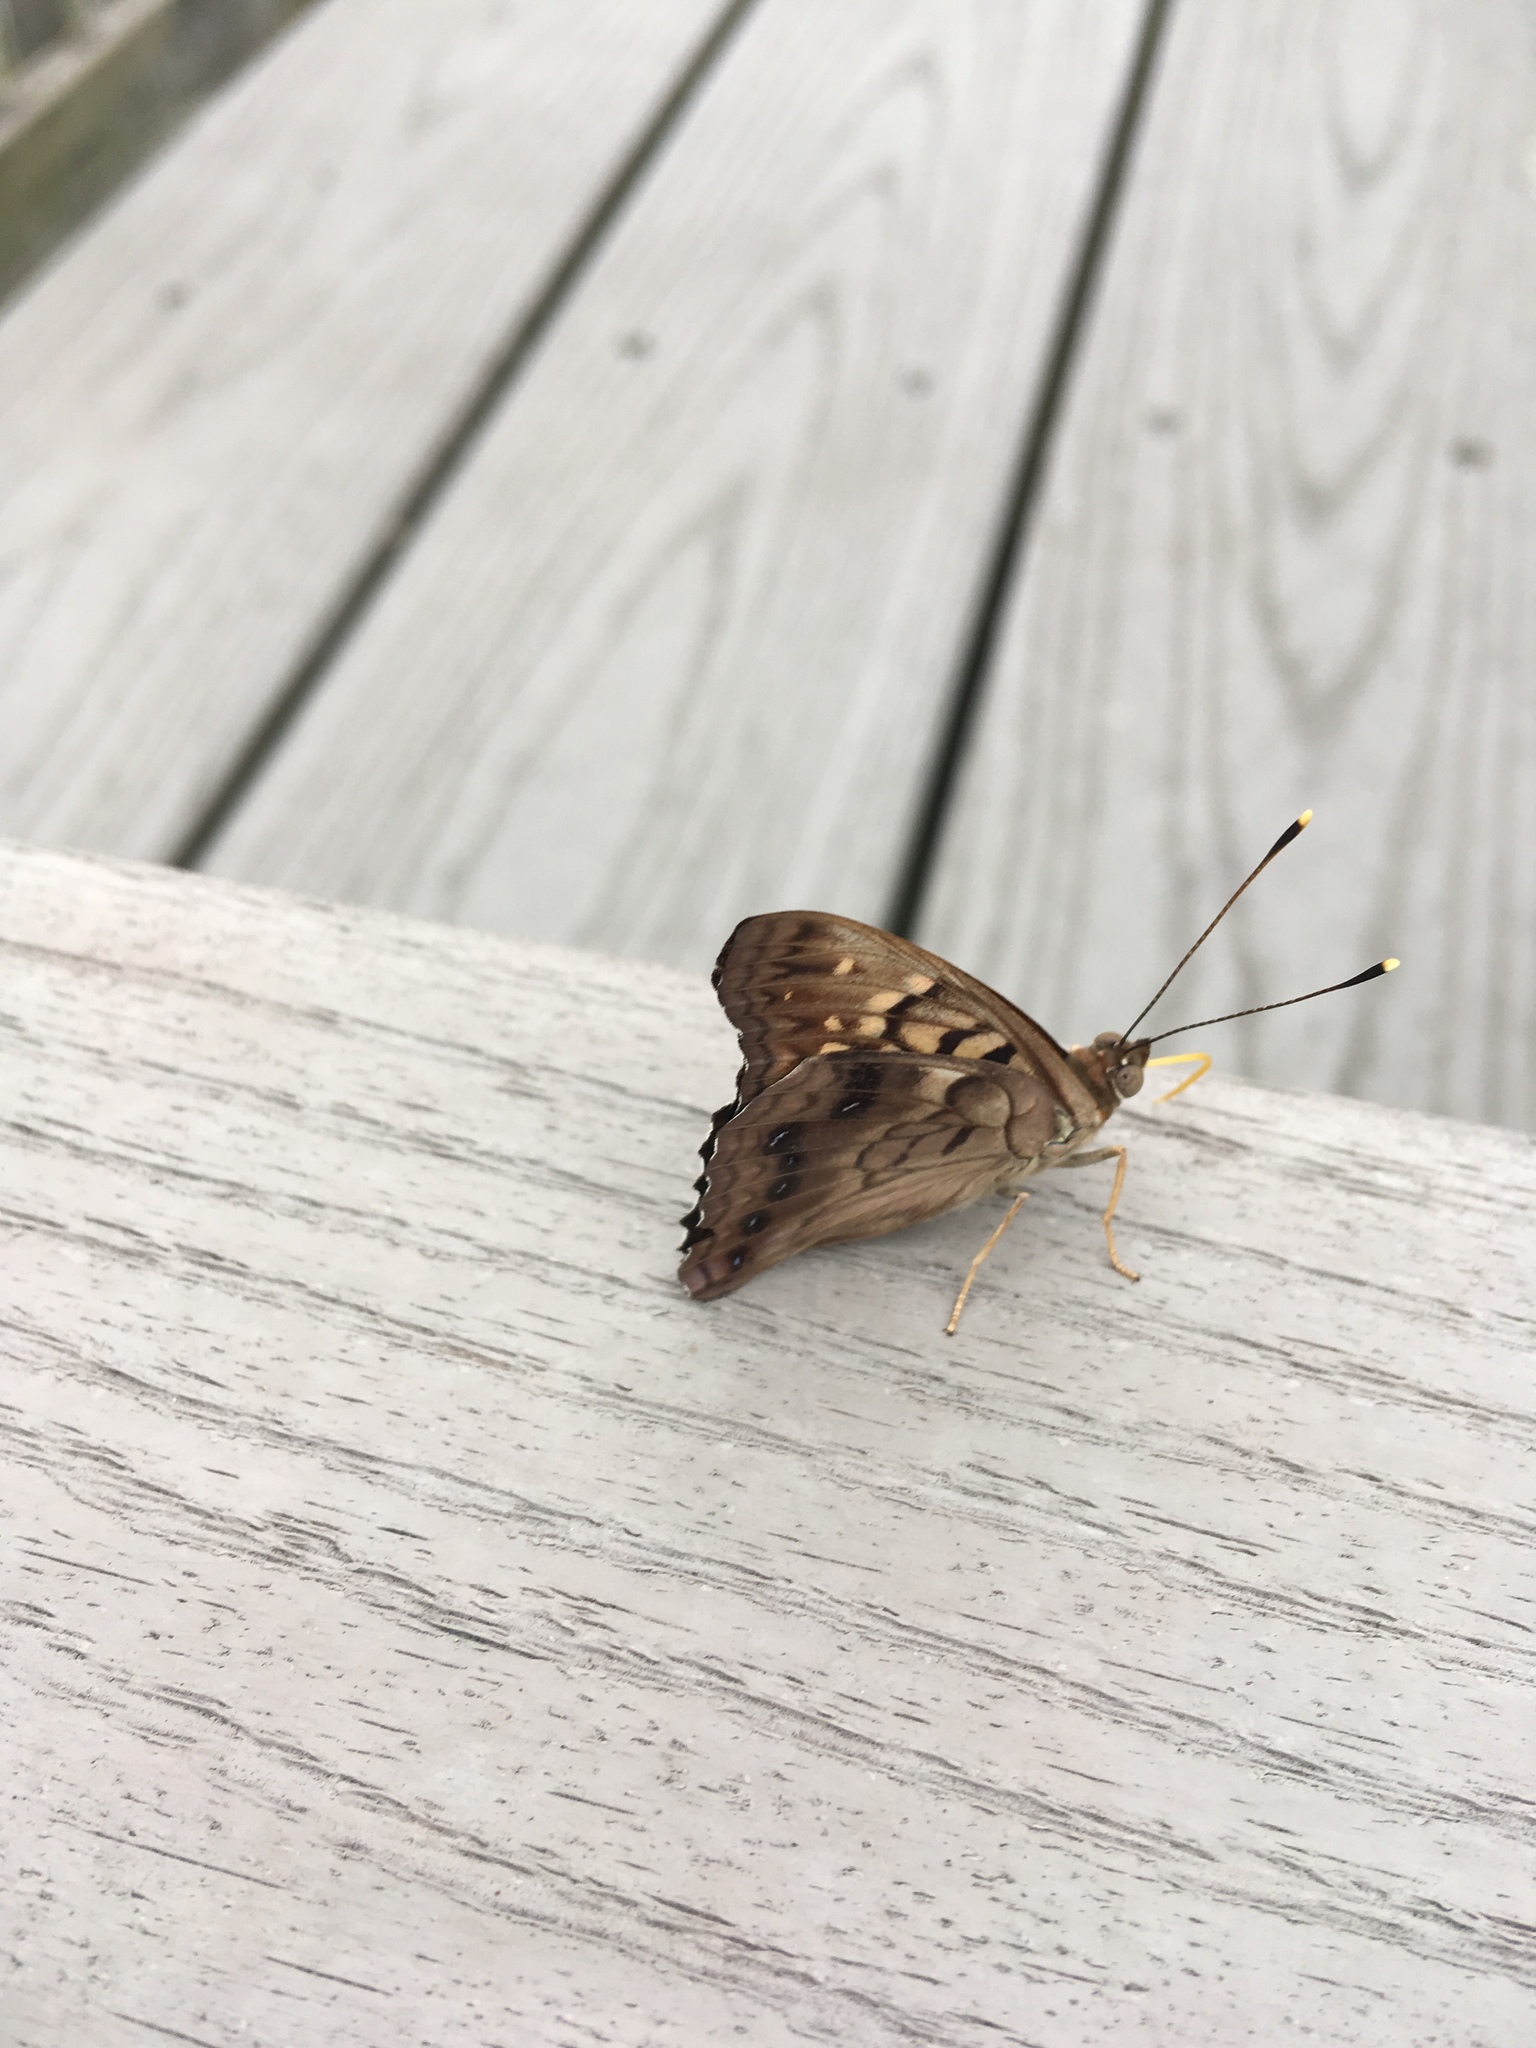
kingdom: Animalia
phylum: Arthropoda
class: Insecta
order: Lepidoptera
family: Nymphalidae
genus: Asterocampa
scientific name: Asterocampa clyton
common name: Tawny emperor
